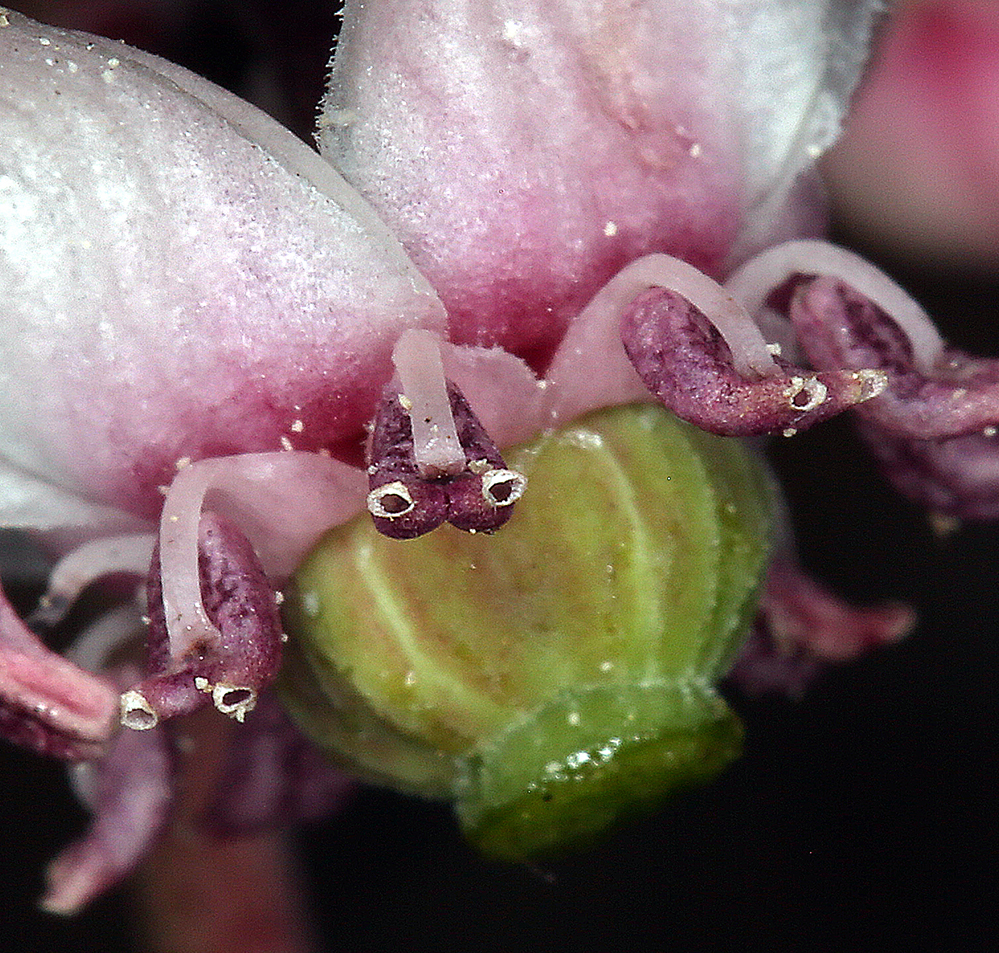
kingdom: Plantae
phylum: Tracheophyta
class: Magnoliopsida
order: Ericales
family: Ericaceae
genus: Chimaphila
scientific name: Chimaphila umbellata
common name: Pipsissewa
